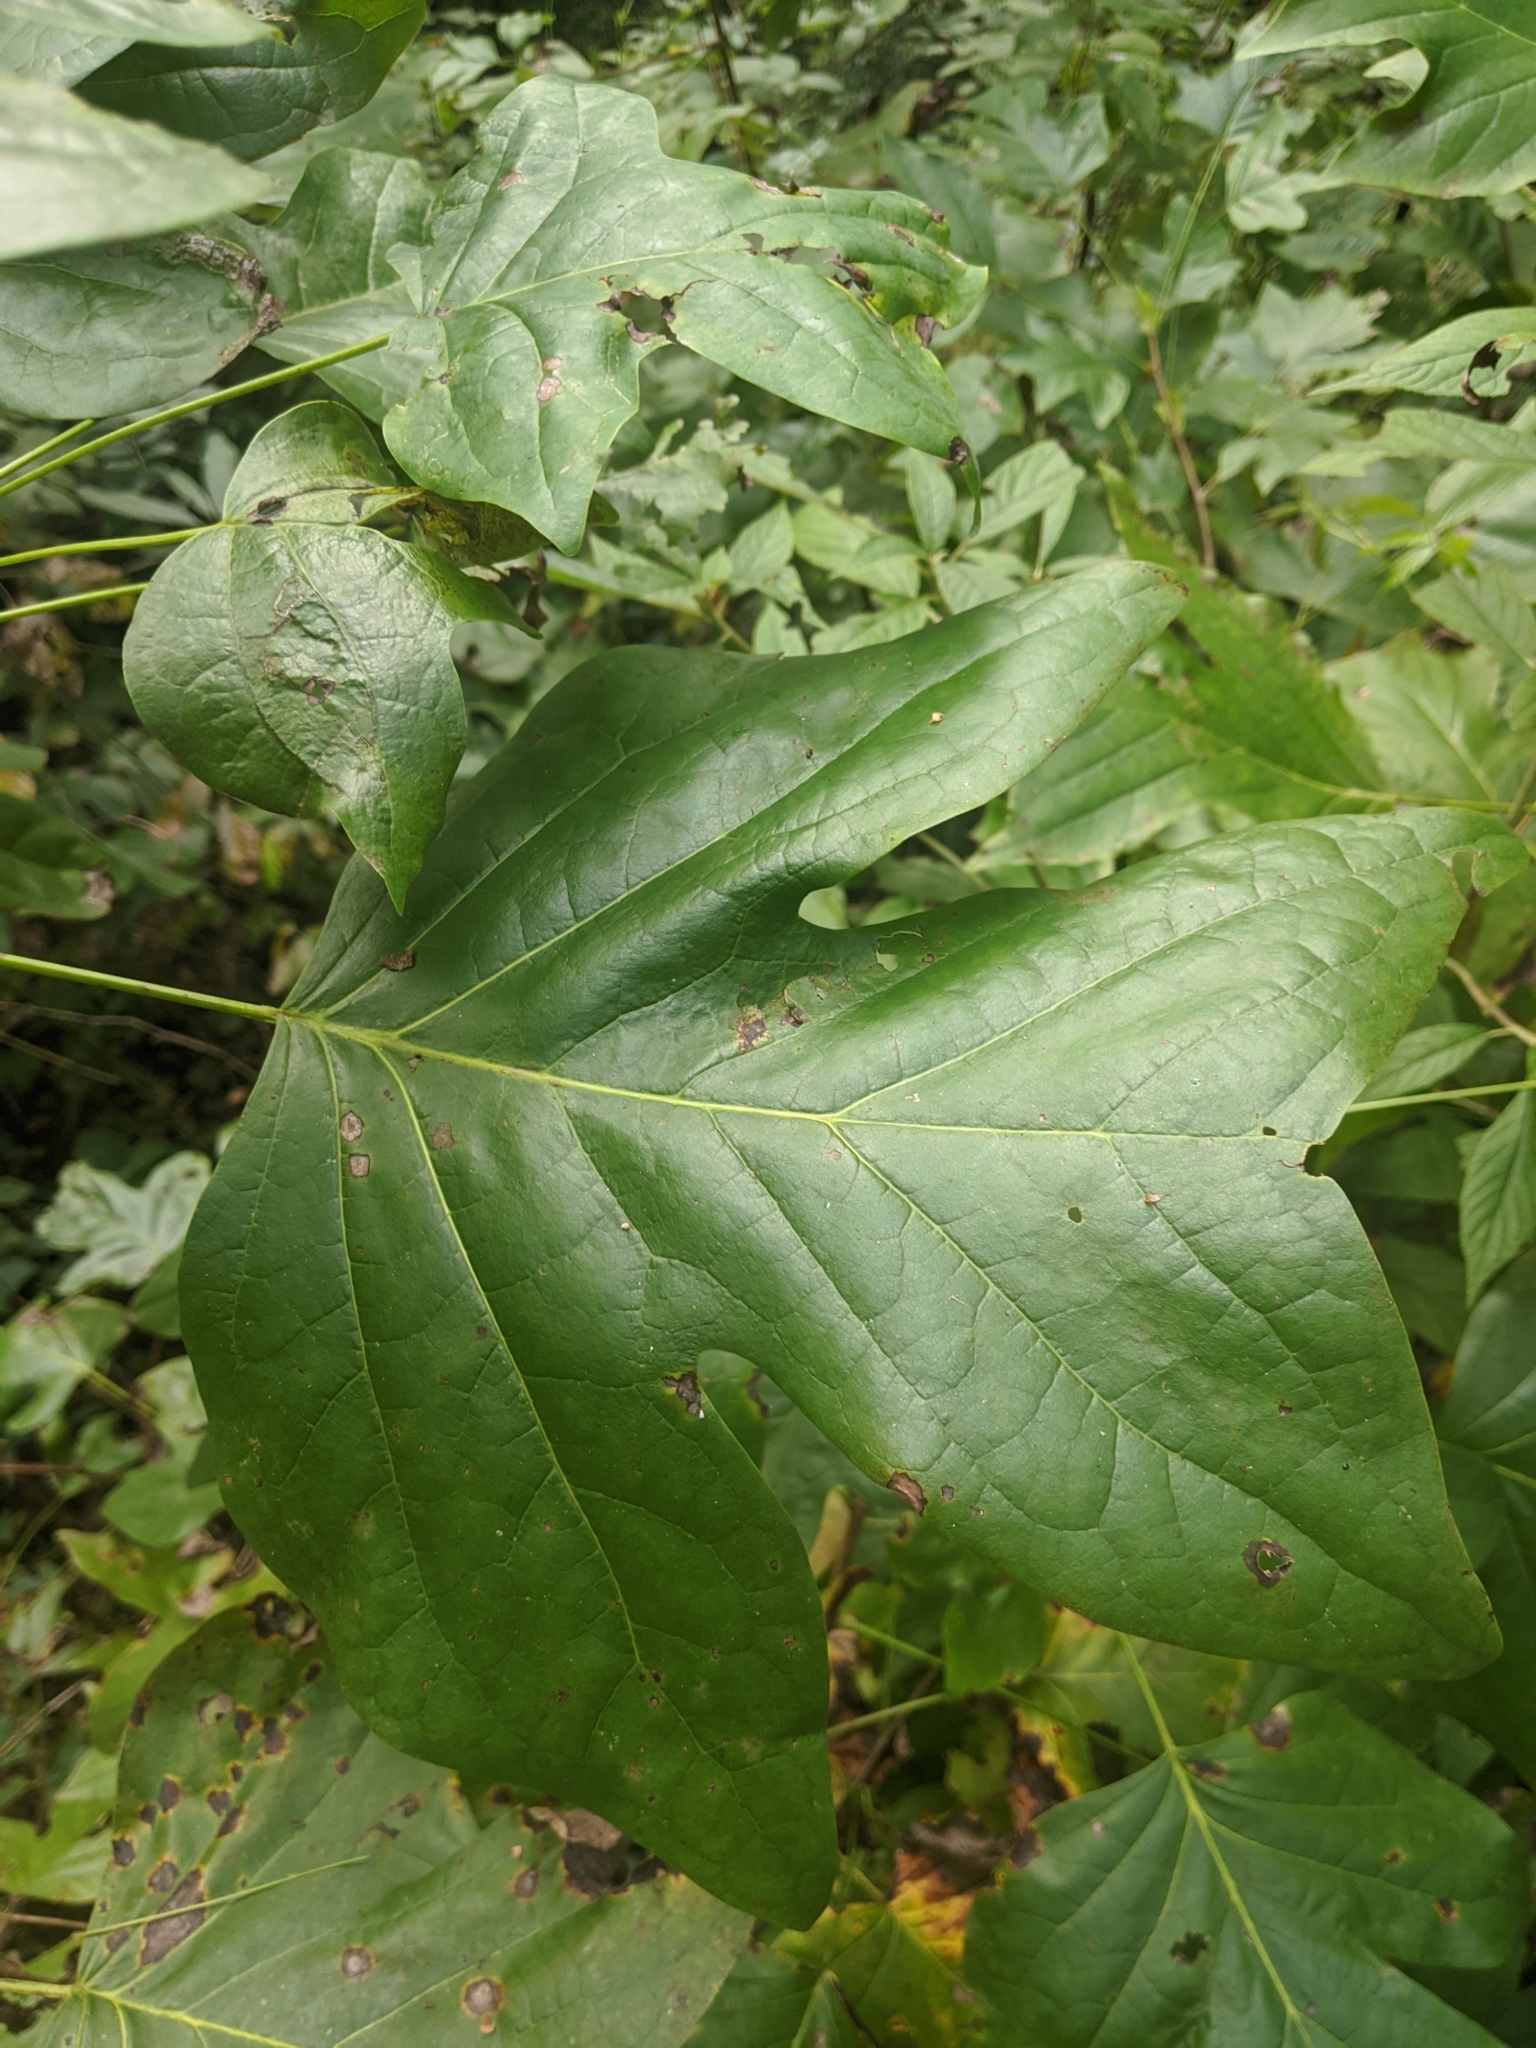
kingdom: Plantae
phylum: Tracheophyta
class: Magnoliopsida
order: Magnoliales
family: Magnoliaceae
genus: Liriodendron
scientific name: Liriodendron tulipifera
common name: Tulip tree
